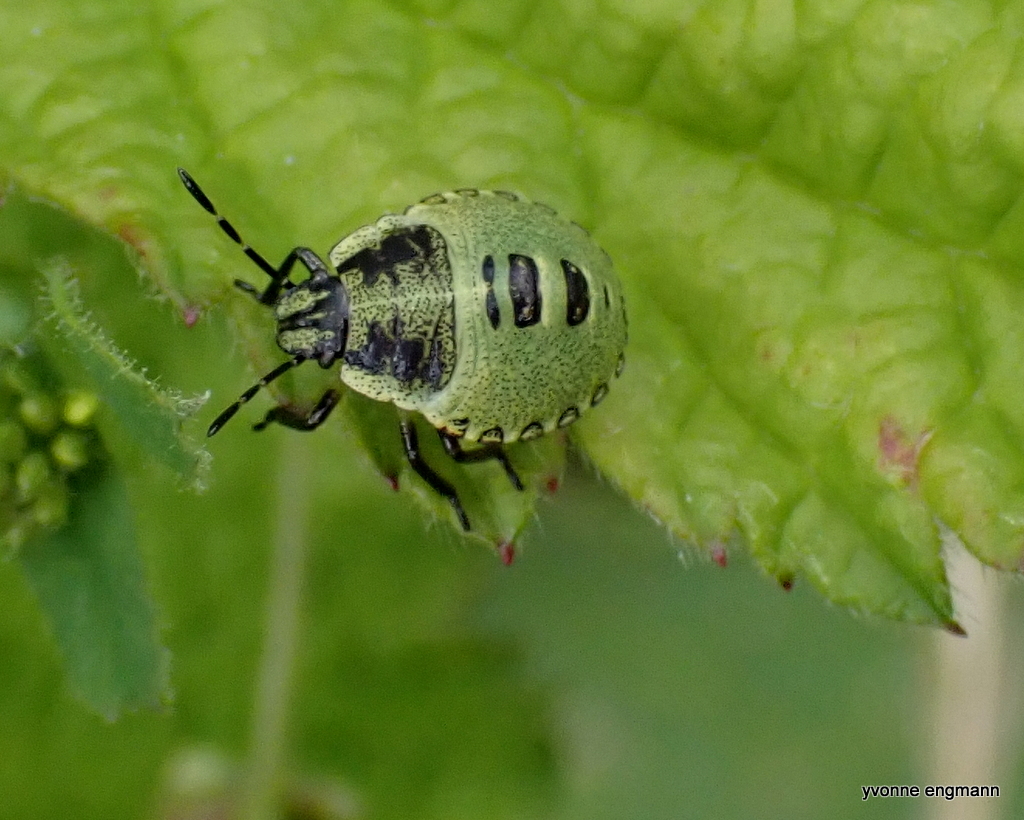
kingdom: Animalia
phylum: Arthropoda
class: Insecta
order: Hemiptera
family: Pentatomidae
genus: Palomena
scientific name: Palomena prasina
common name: Green shieldbug
